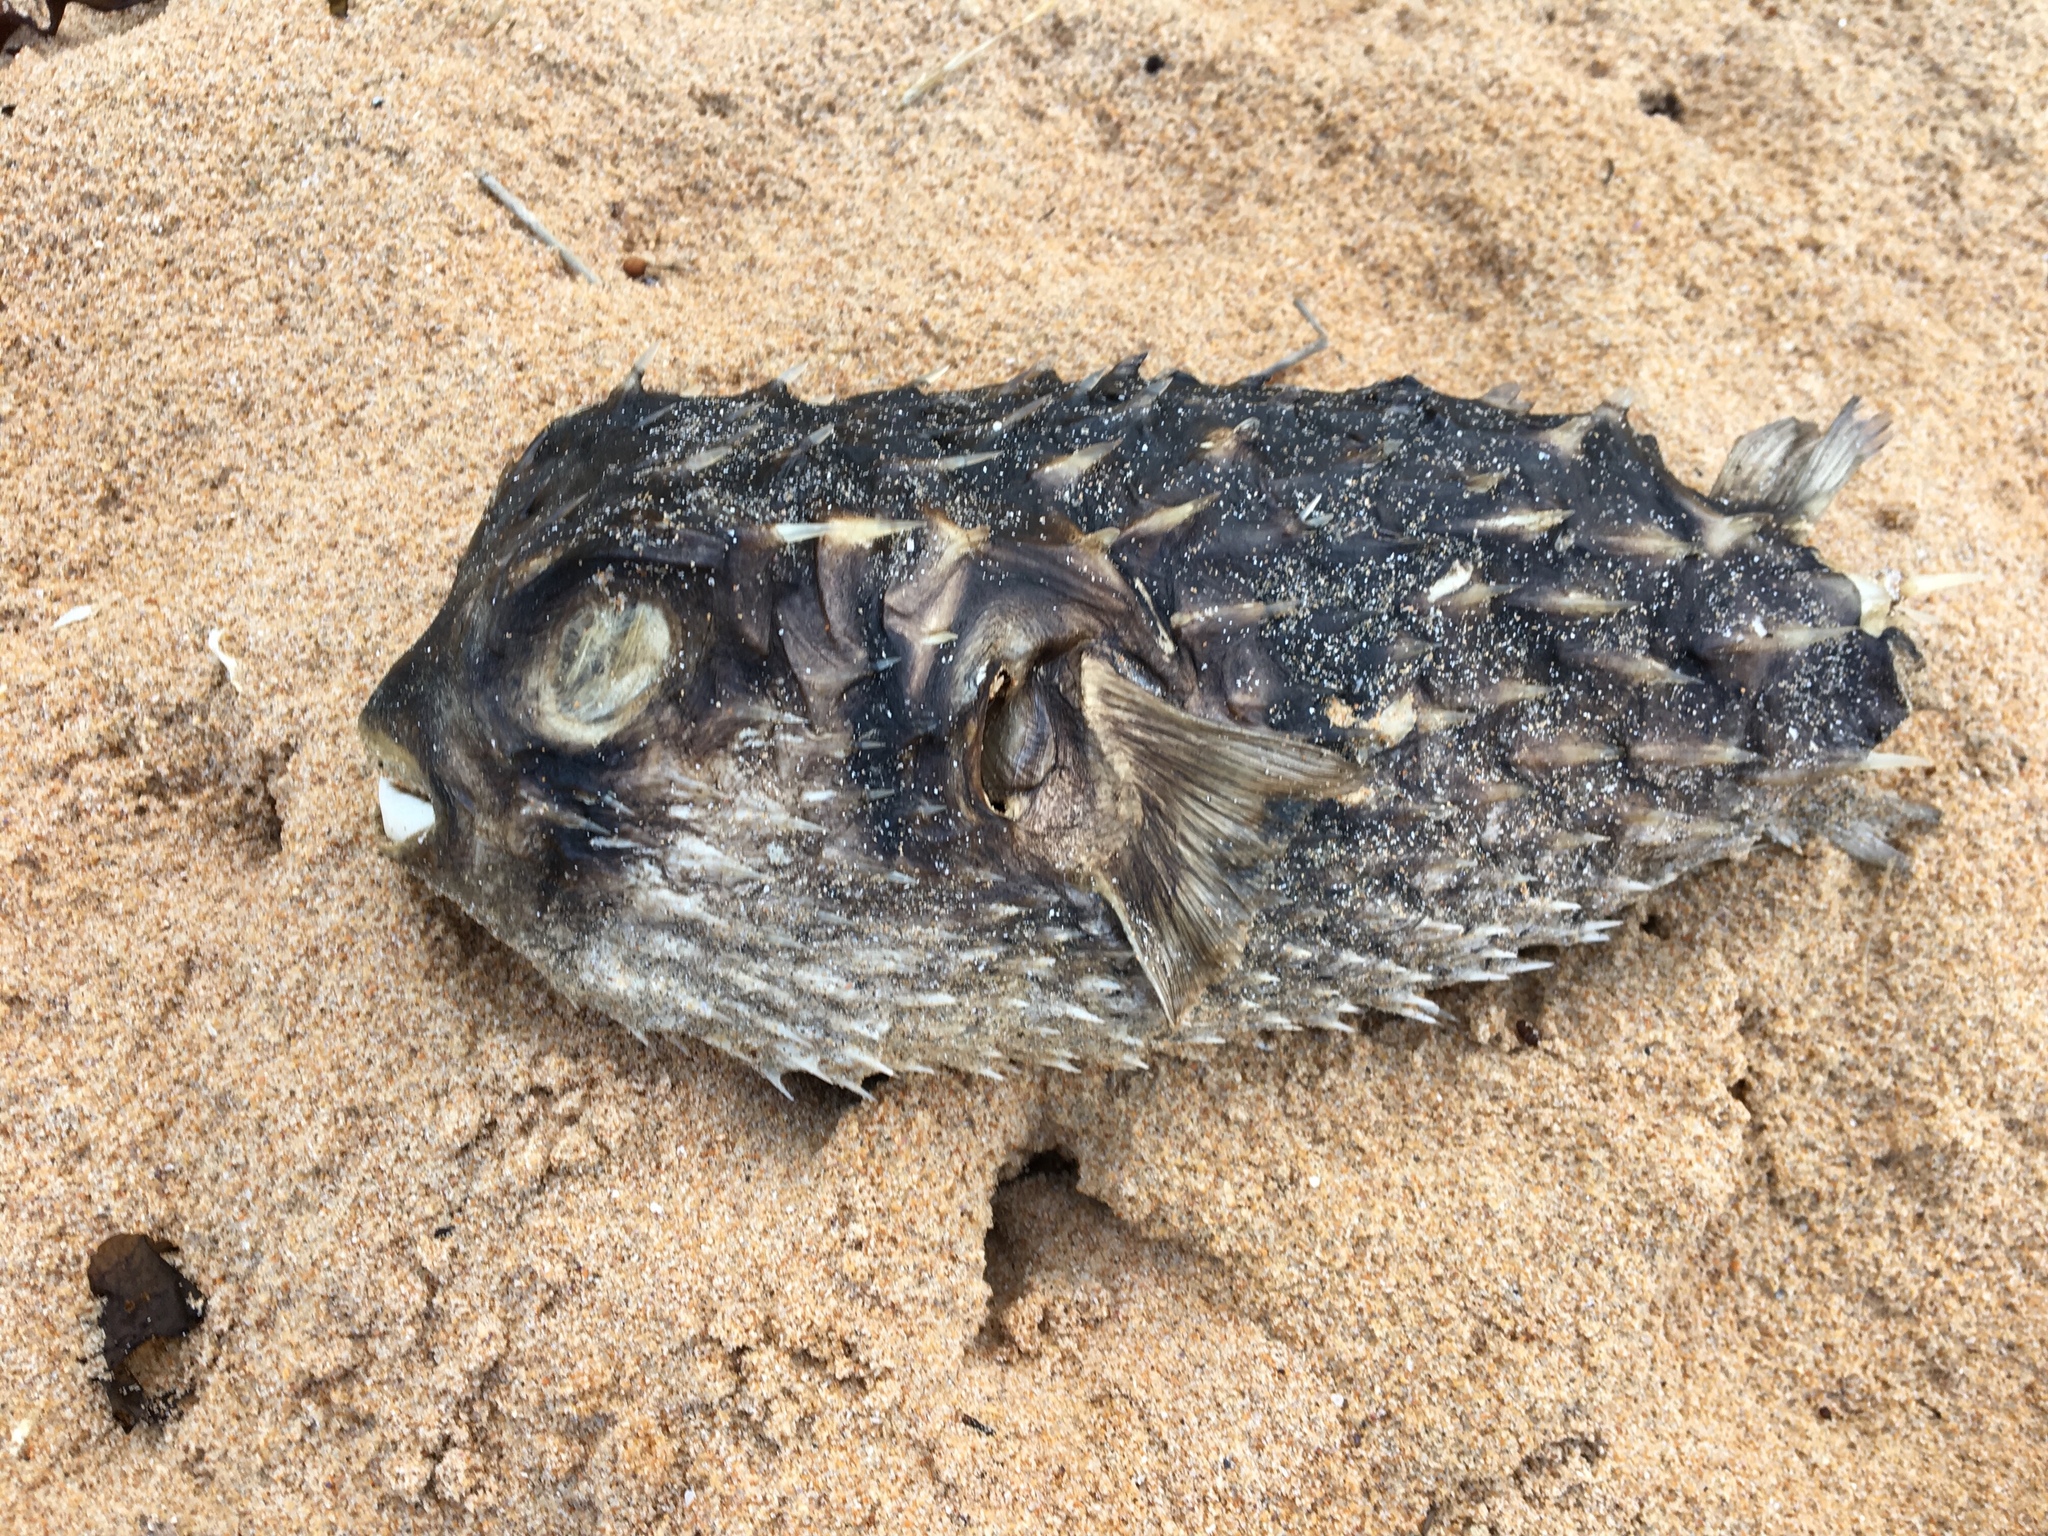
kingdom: Animalia
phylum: Chordata
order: Tetraodontiformes
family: Diodontidae
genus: Dicotylichthys
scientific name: Dicotylichthys punctulatus
